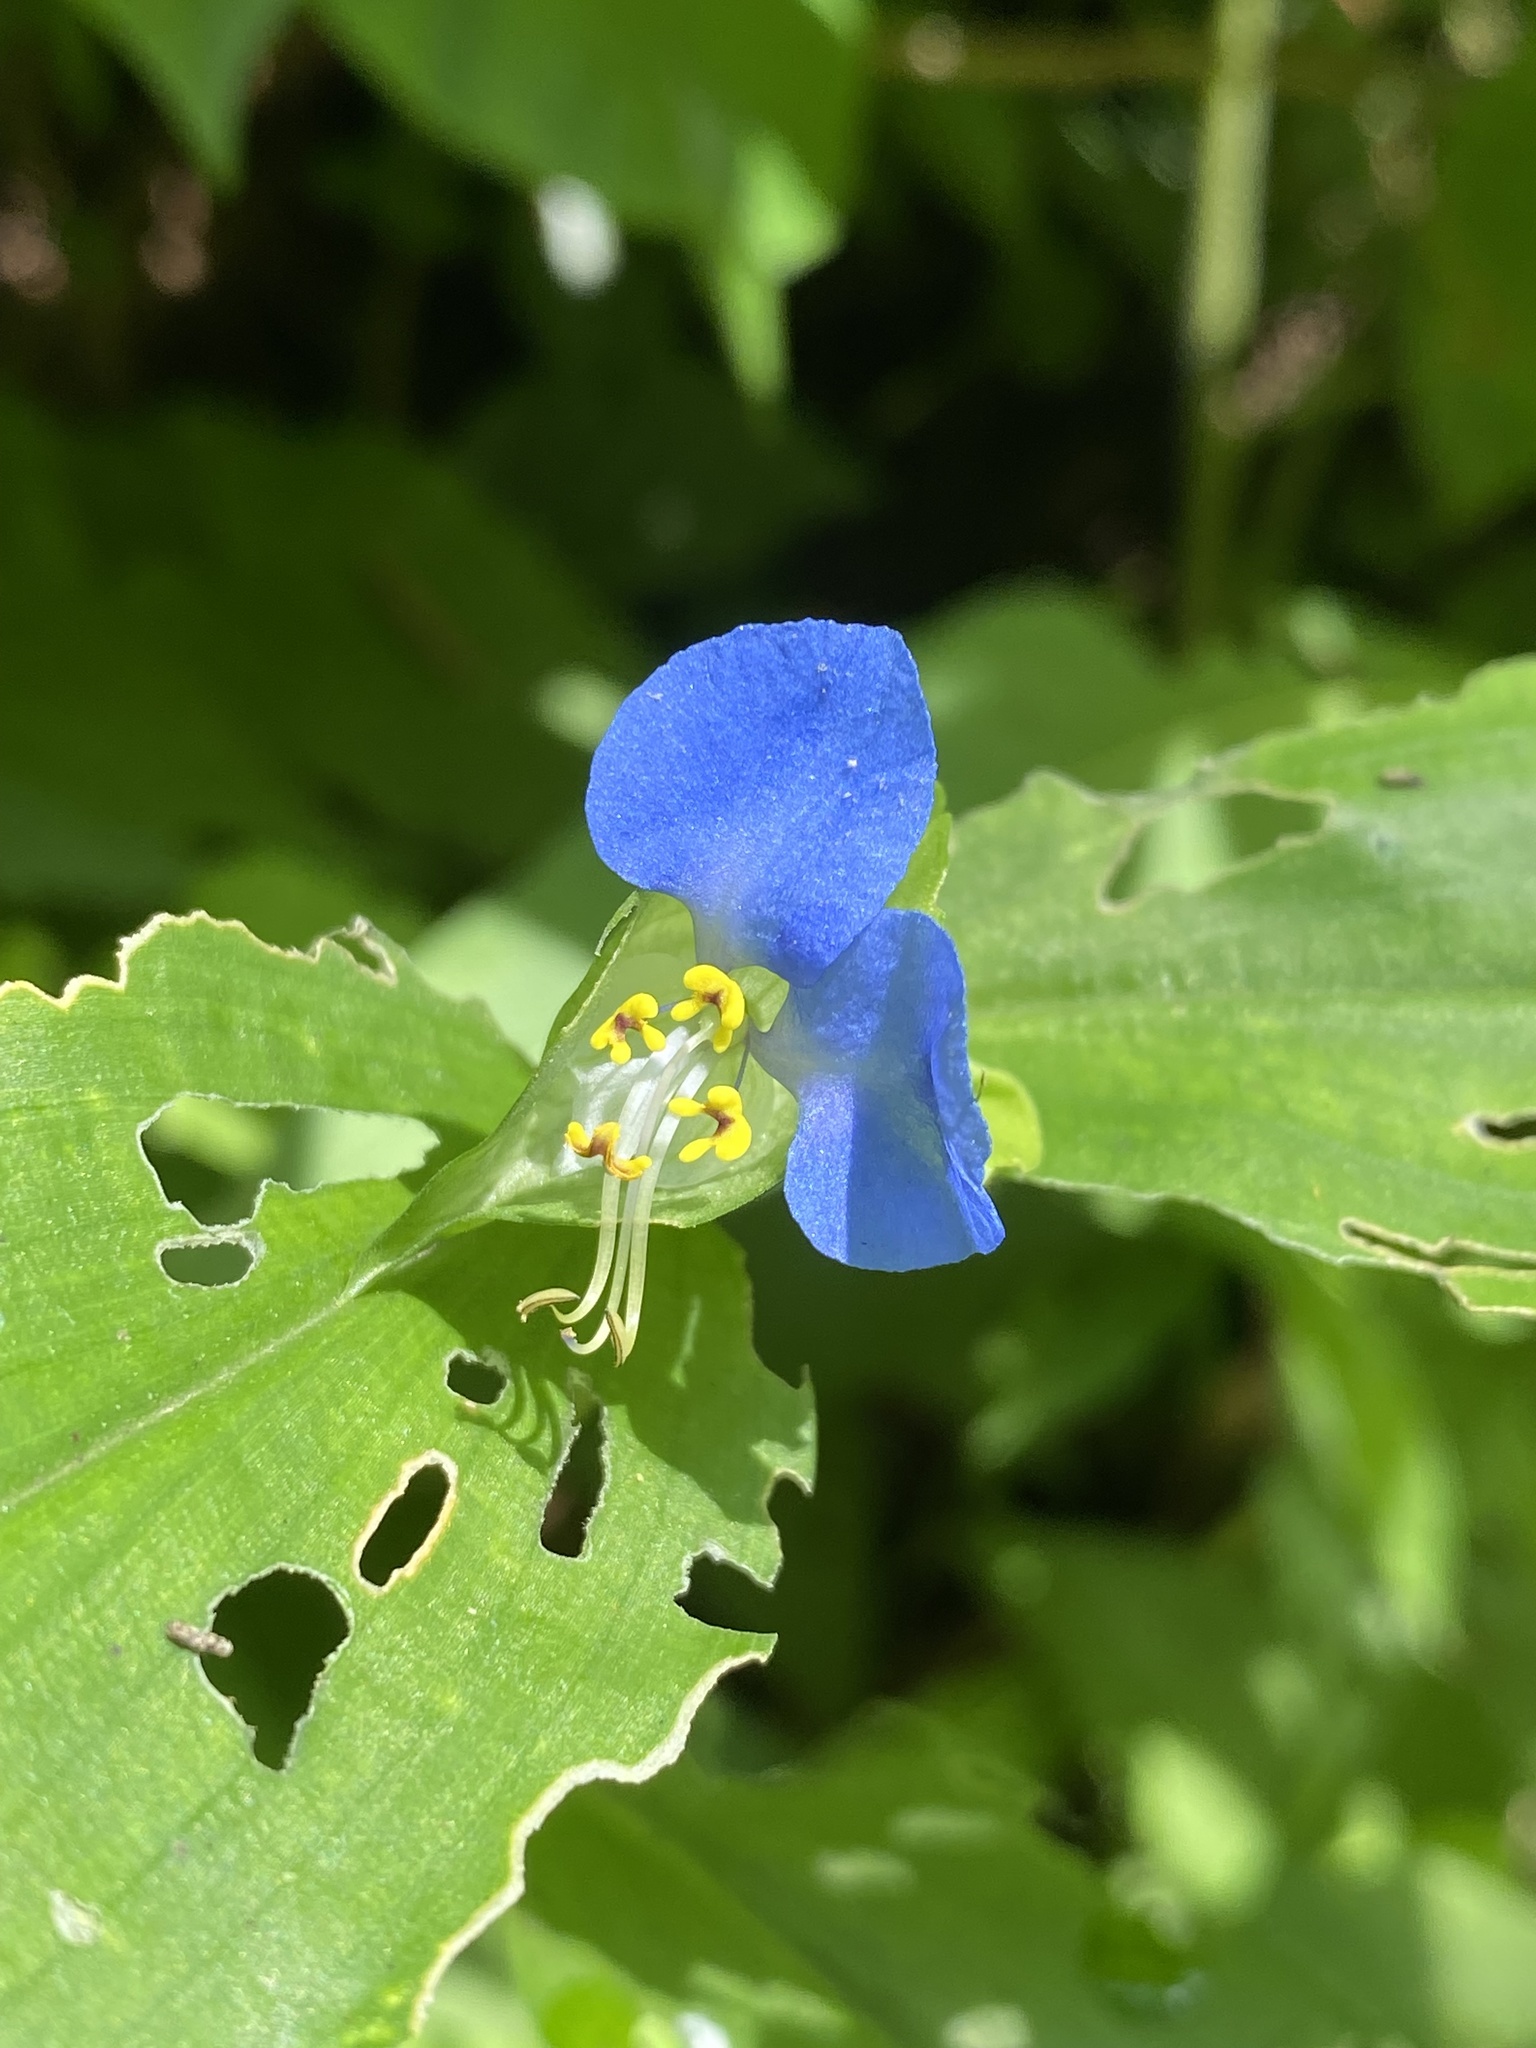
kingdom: Plantae
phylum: Tracheophyta
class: Liliopsida
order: Commelinales
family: Commelinaceae
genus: Commelina
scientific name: Commelina communis
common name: Asiatic dayflower
